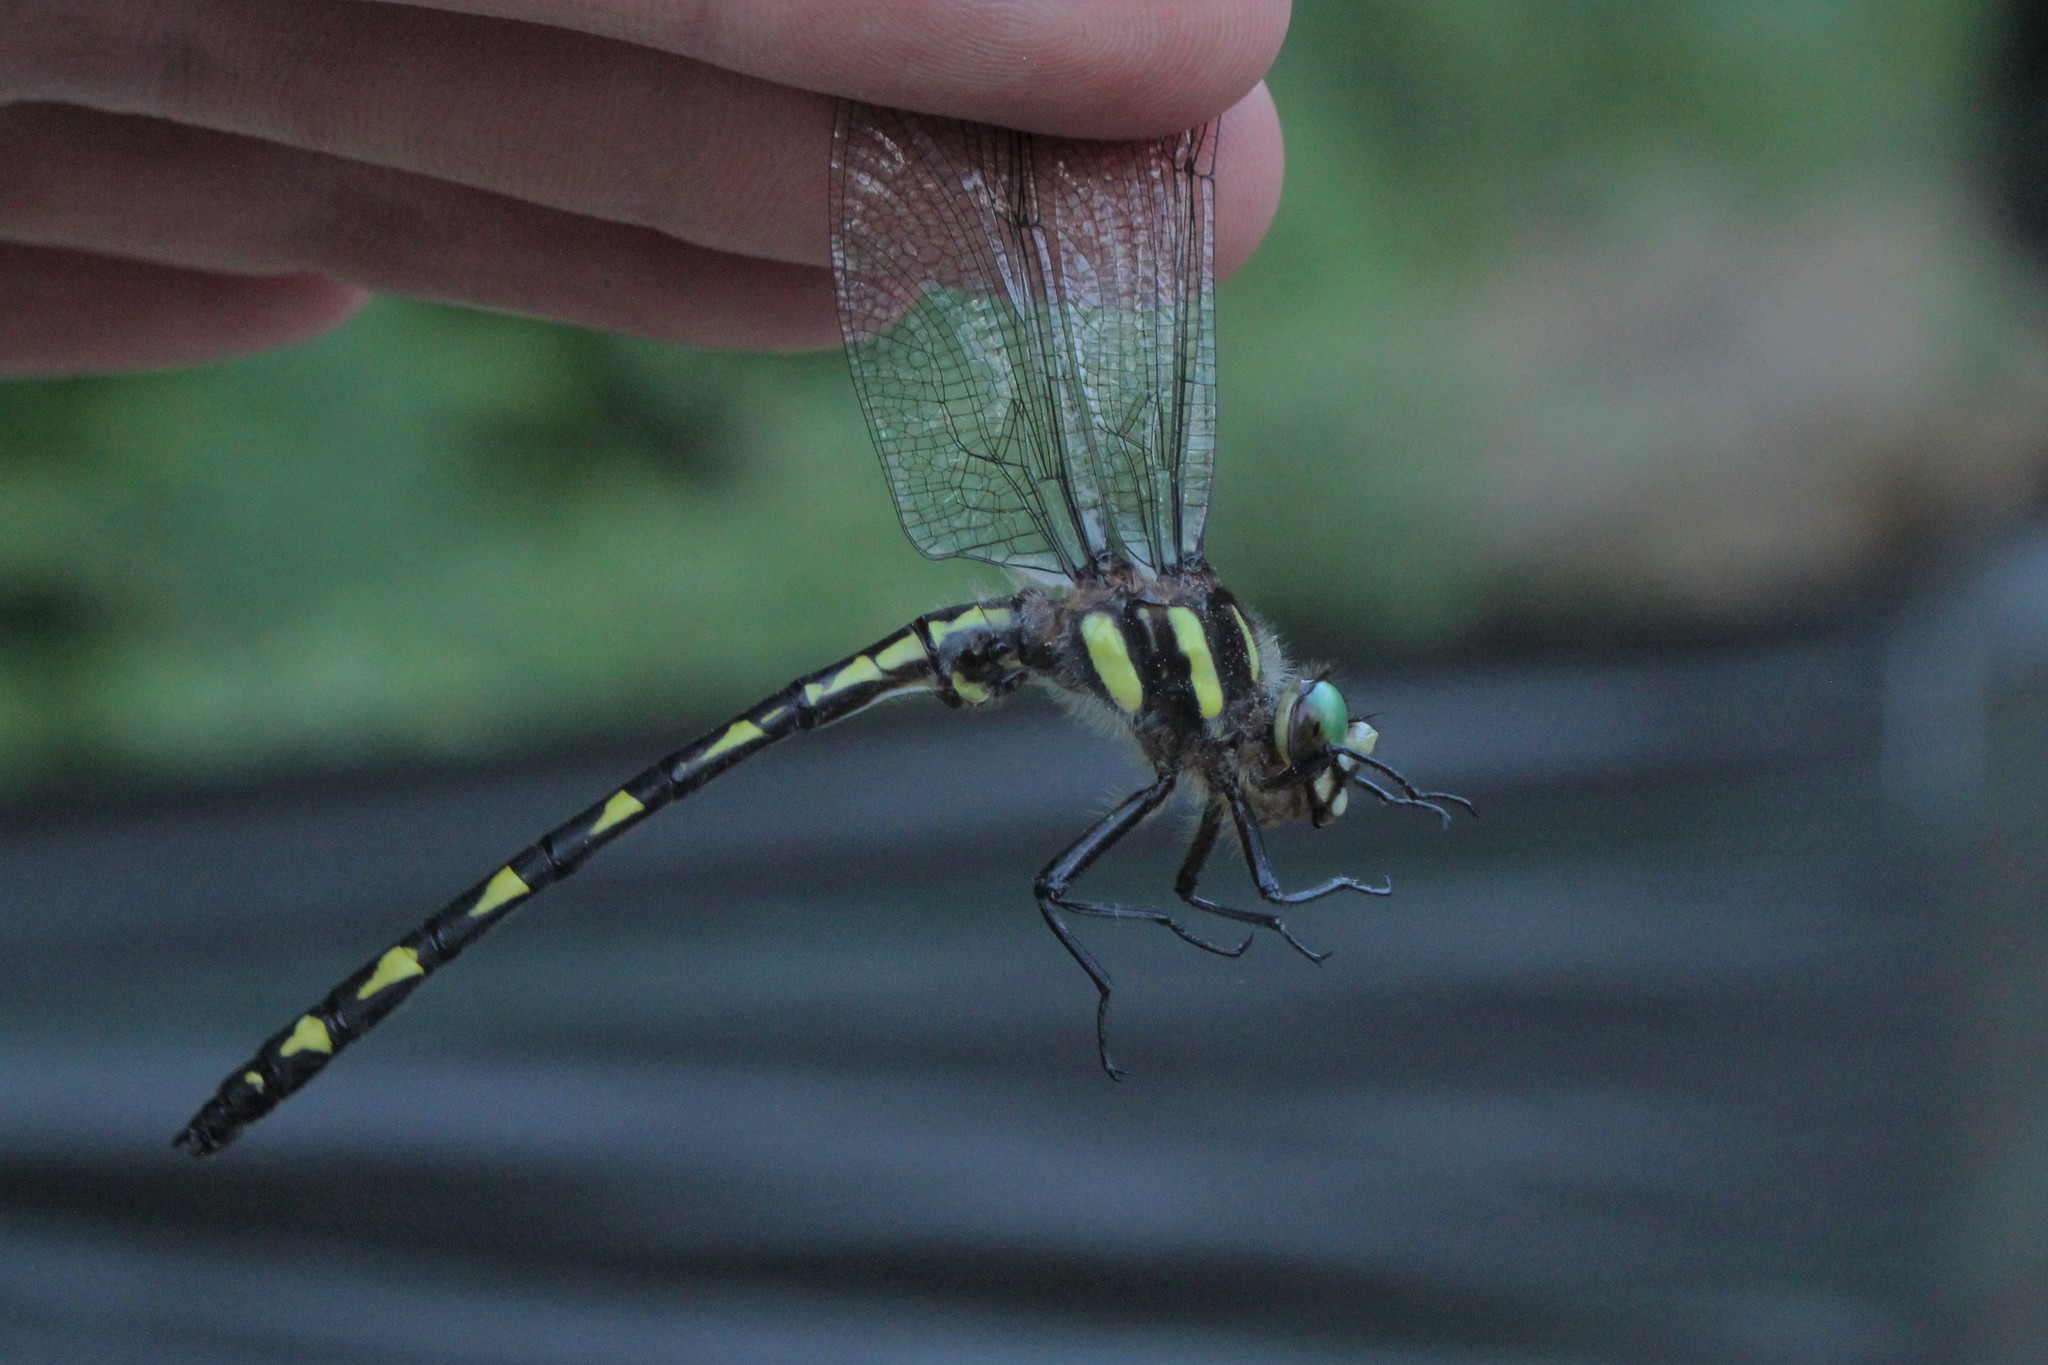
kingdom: Animalia
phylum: Arthropoda
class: Insecta
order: Odonata
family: Cordulegastridae
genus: Cordulegaster
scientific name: Cordulegaster diastatops
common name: Delta-spotted spiketail
